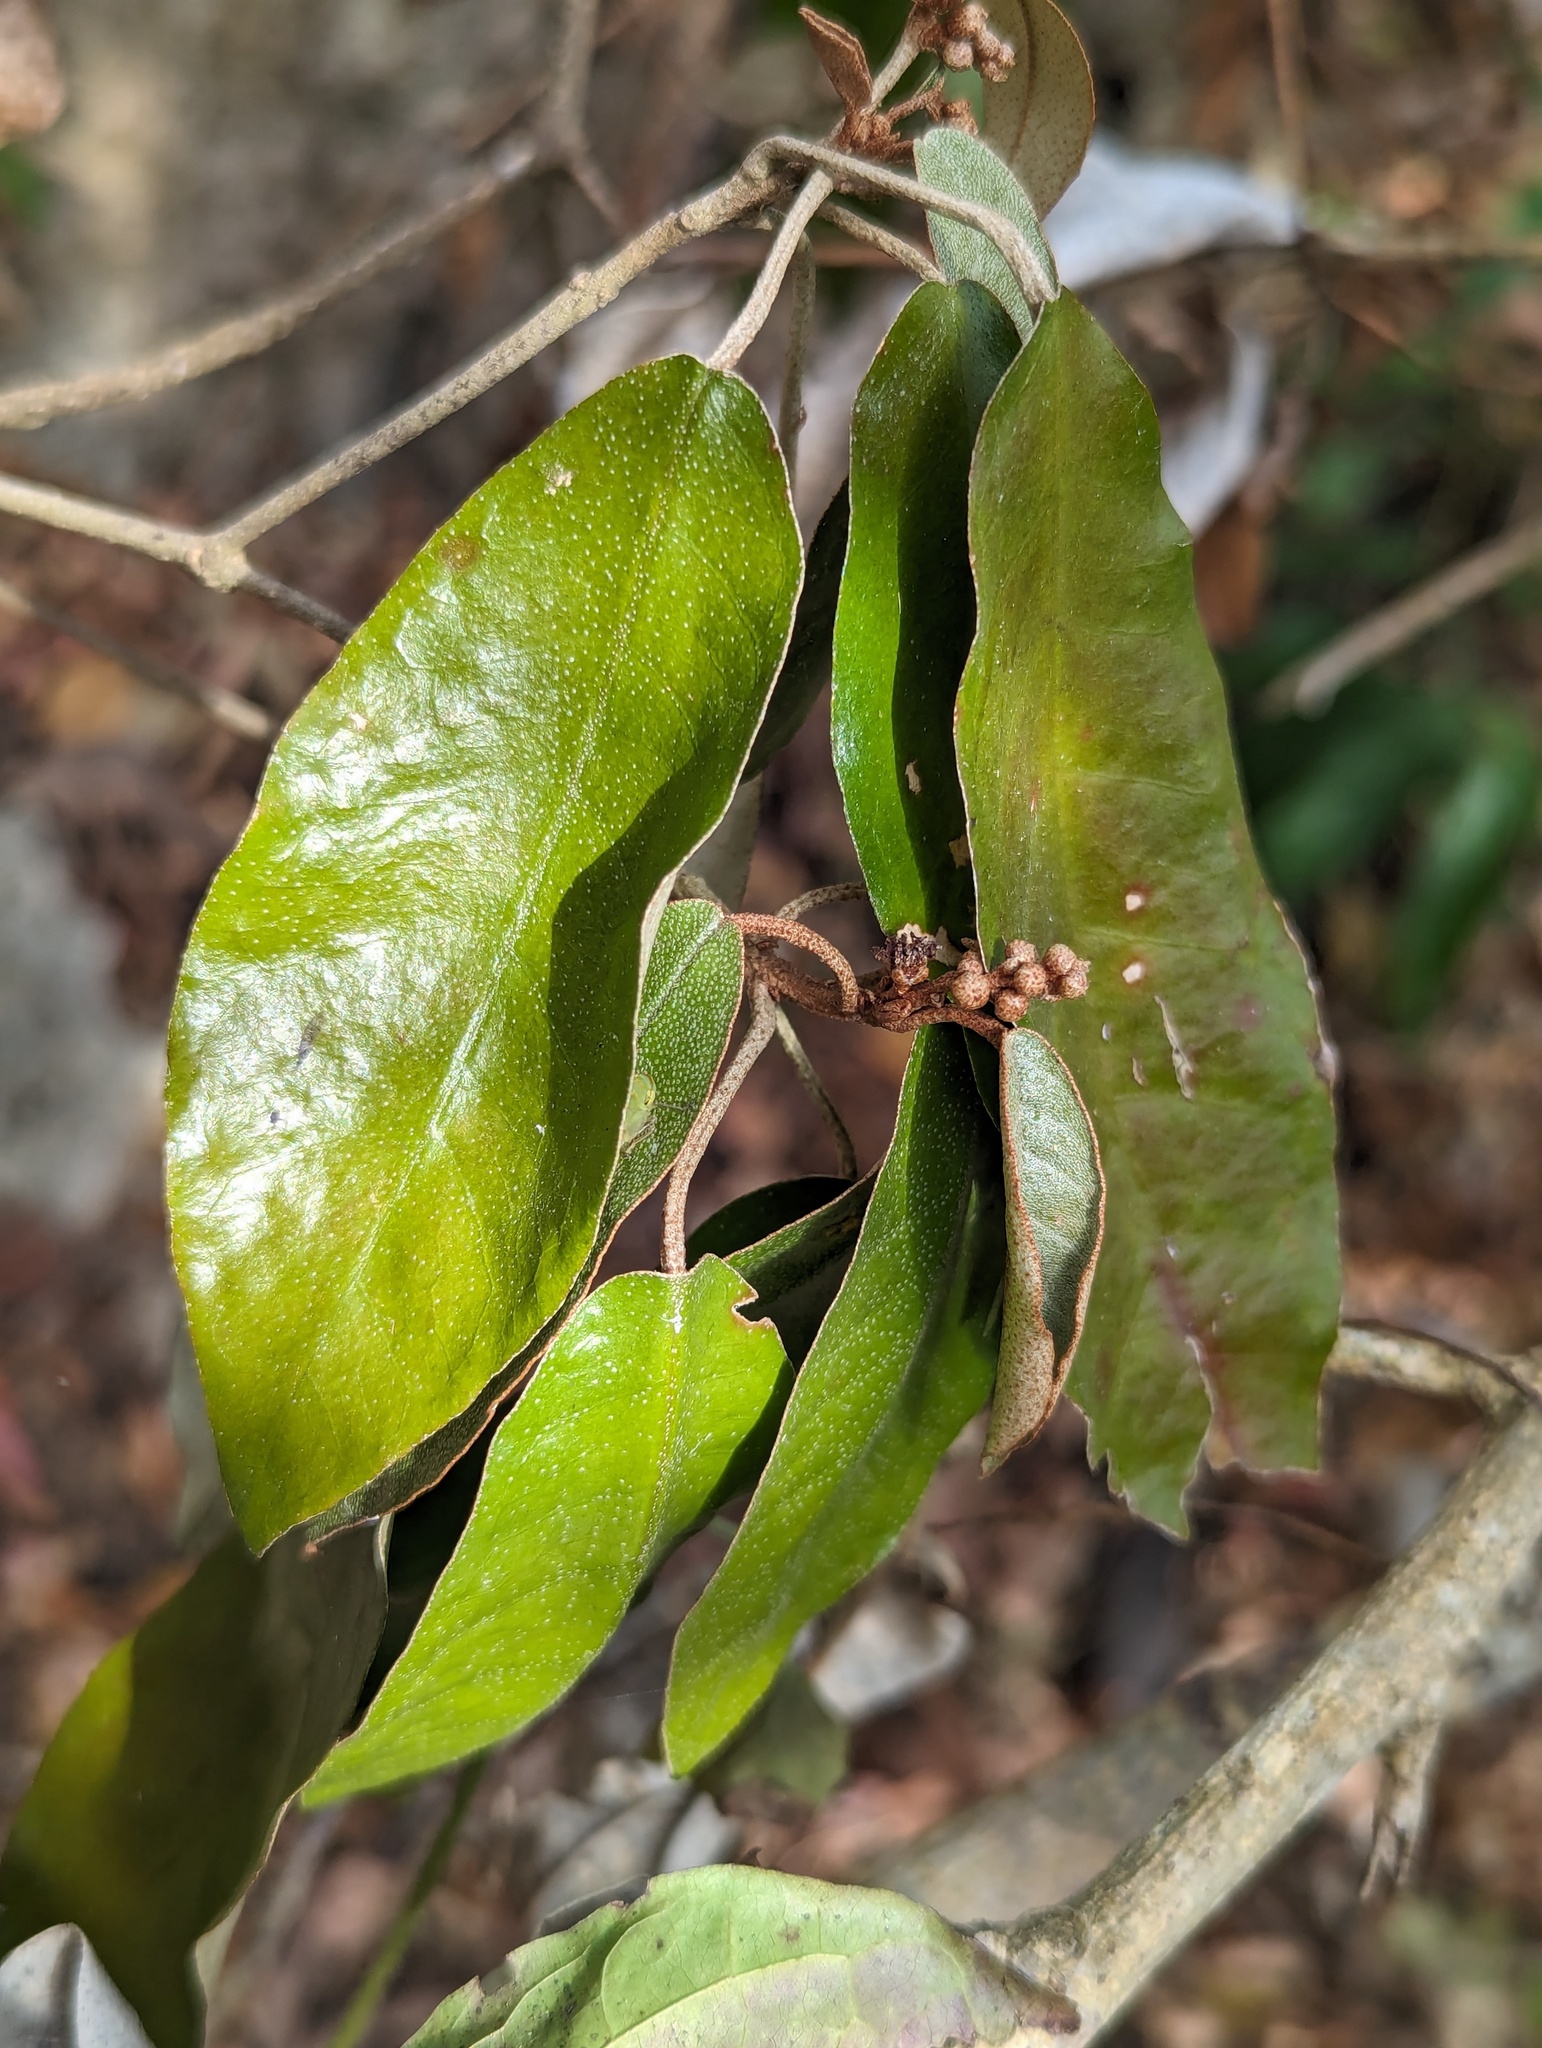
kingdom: Plantae
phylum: Tracheophyta
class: Magnoliopsida
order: Malpighiales
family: Euphorbiaceae
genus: Croton
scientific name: Croton cascarilloides
